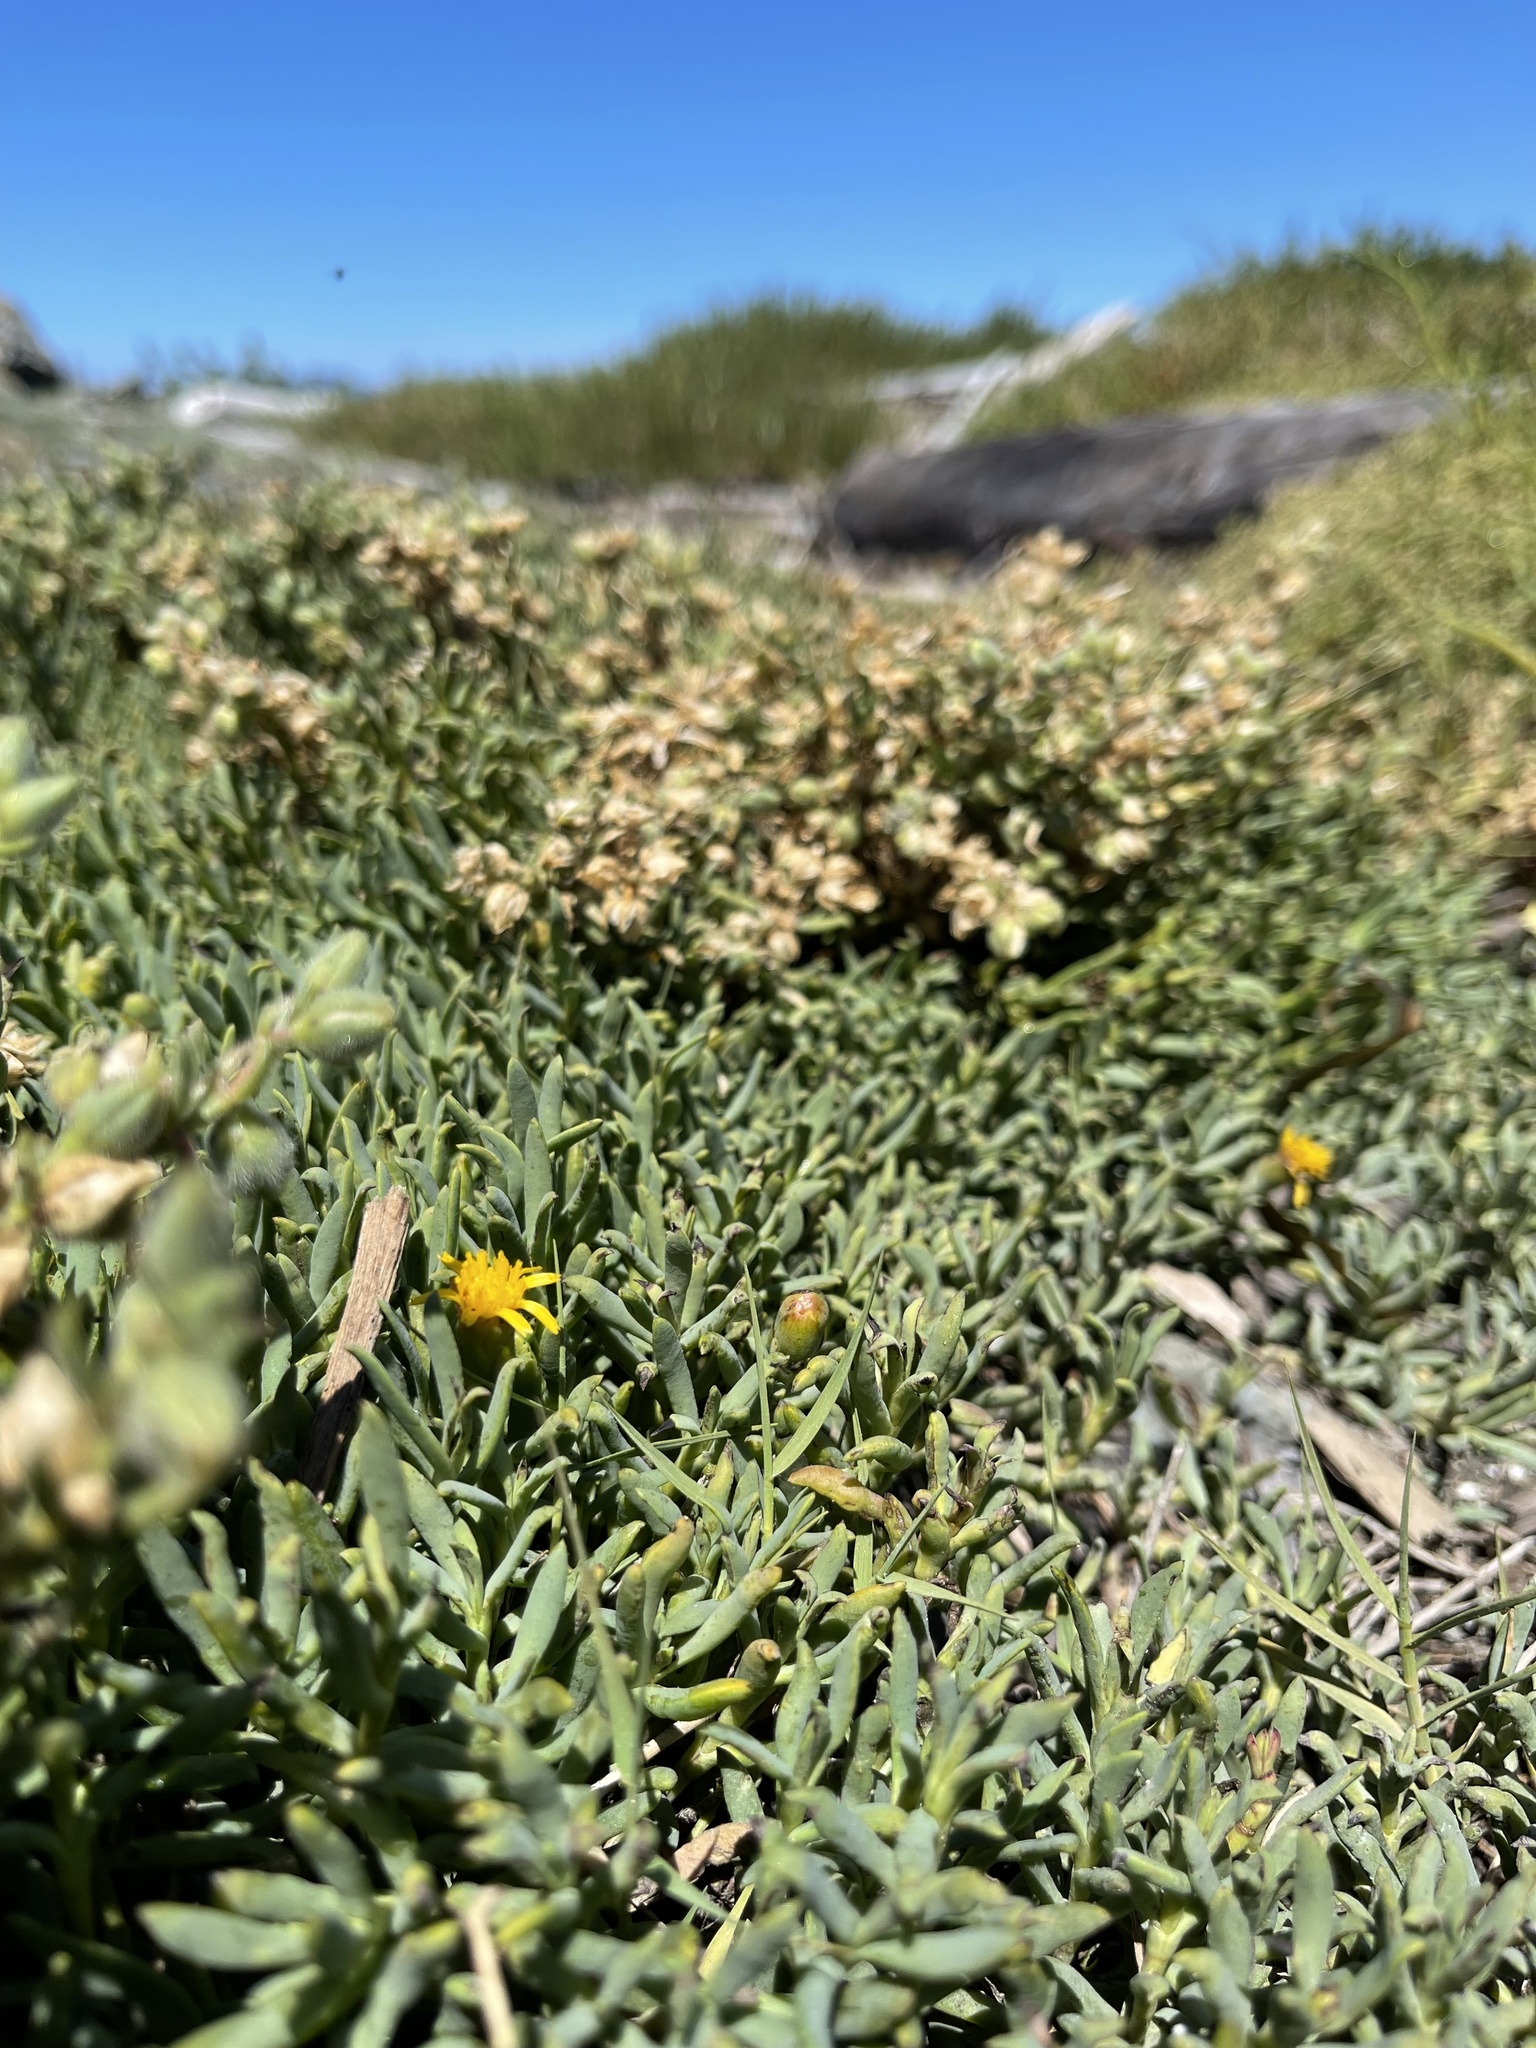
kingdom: Plantae
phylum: Tracheophyta
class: Magnoliopsida
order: Asterales
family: Asteraceae
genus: Jaumea
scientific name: Jaumea carnosa
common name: Fleshy jaumea
